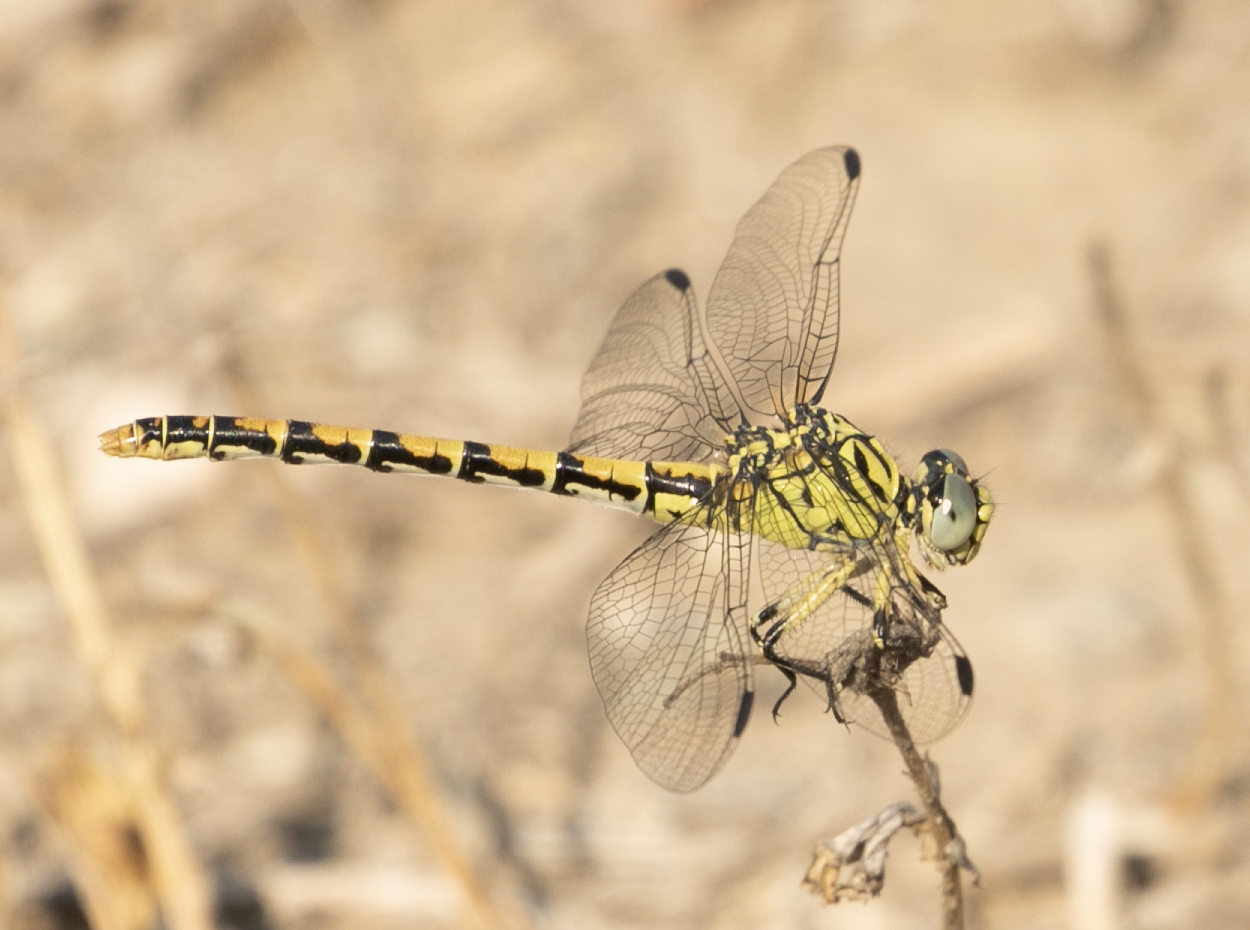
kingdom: Animalia
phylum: Arthropoda
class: Insecta
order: Odonata
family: Gomphidae
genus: Onychogomphus
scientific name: Onychogomphus forcipatus
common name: Small pincertail
